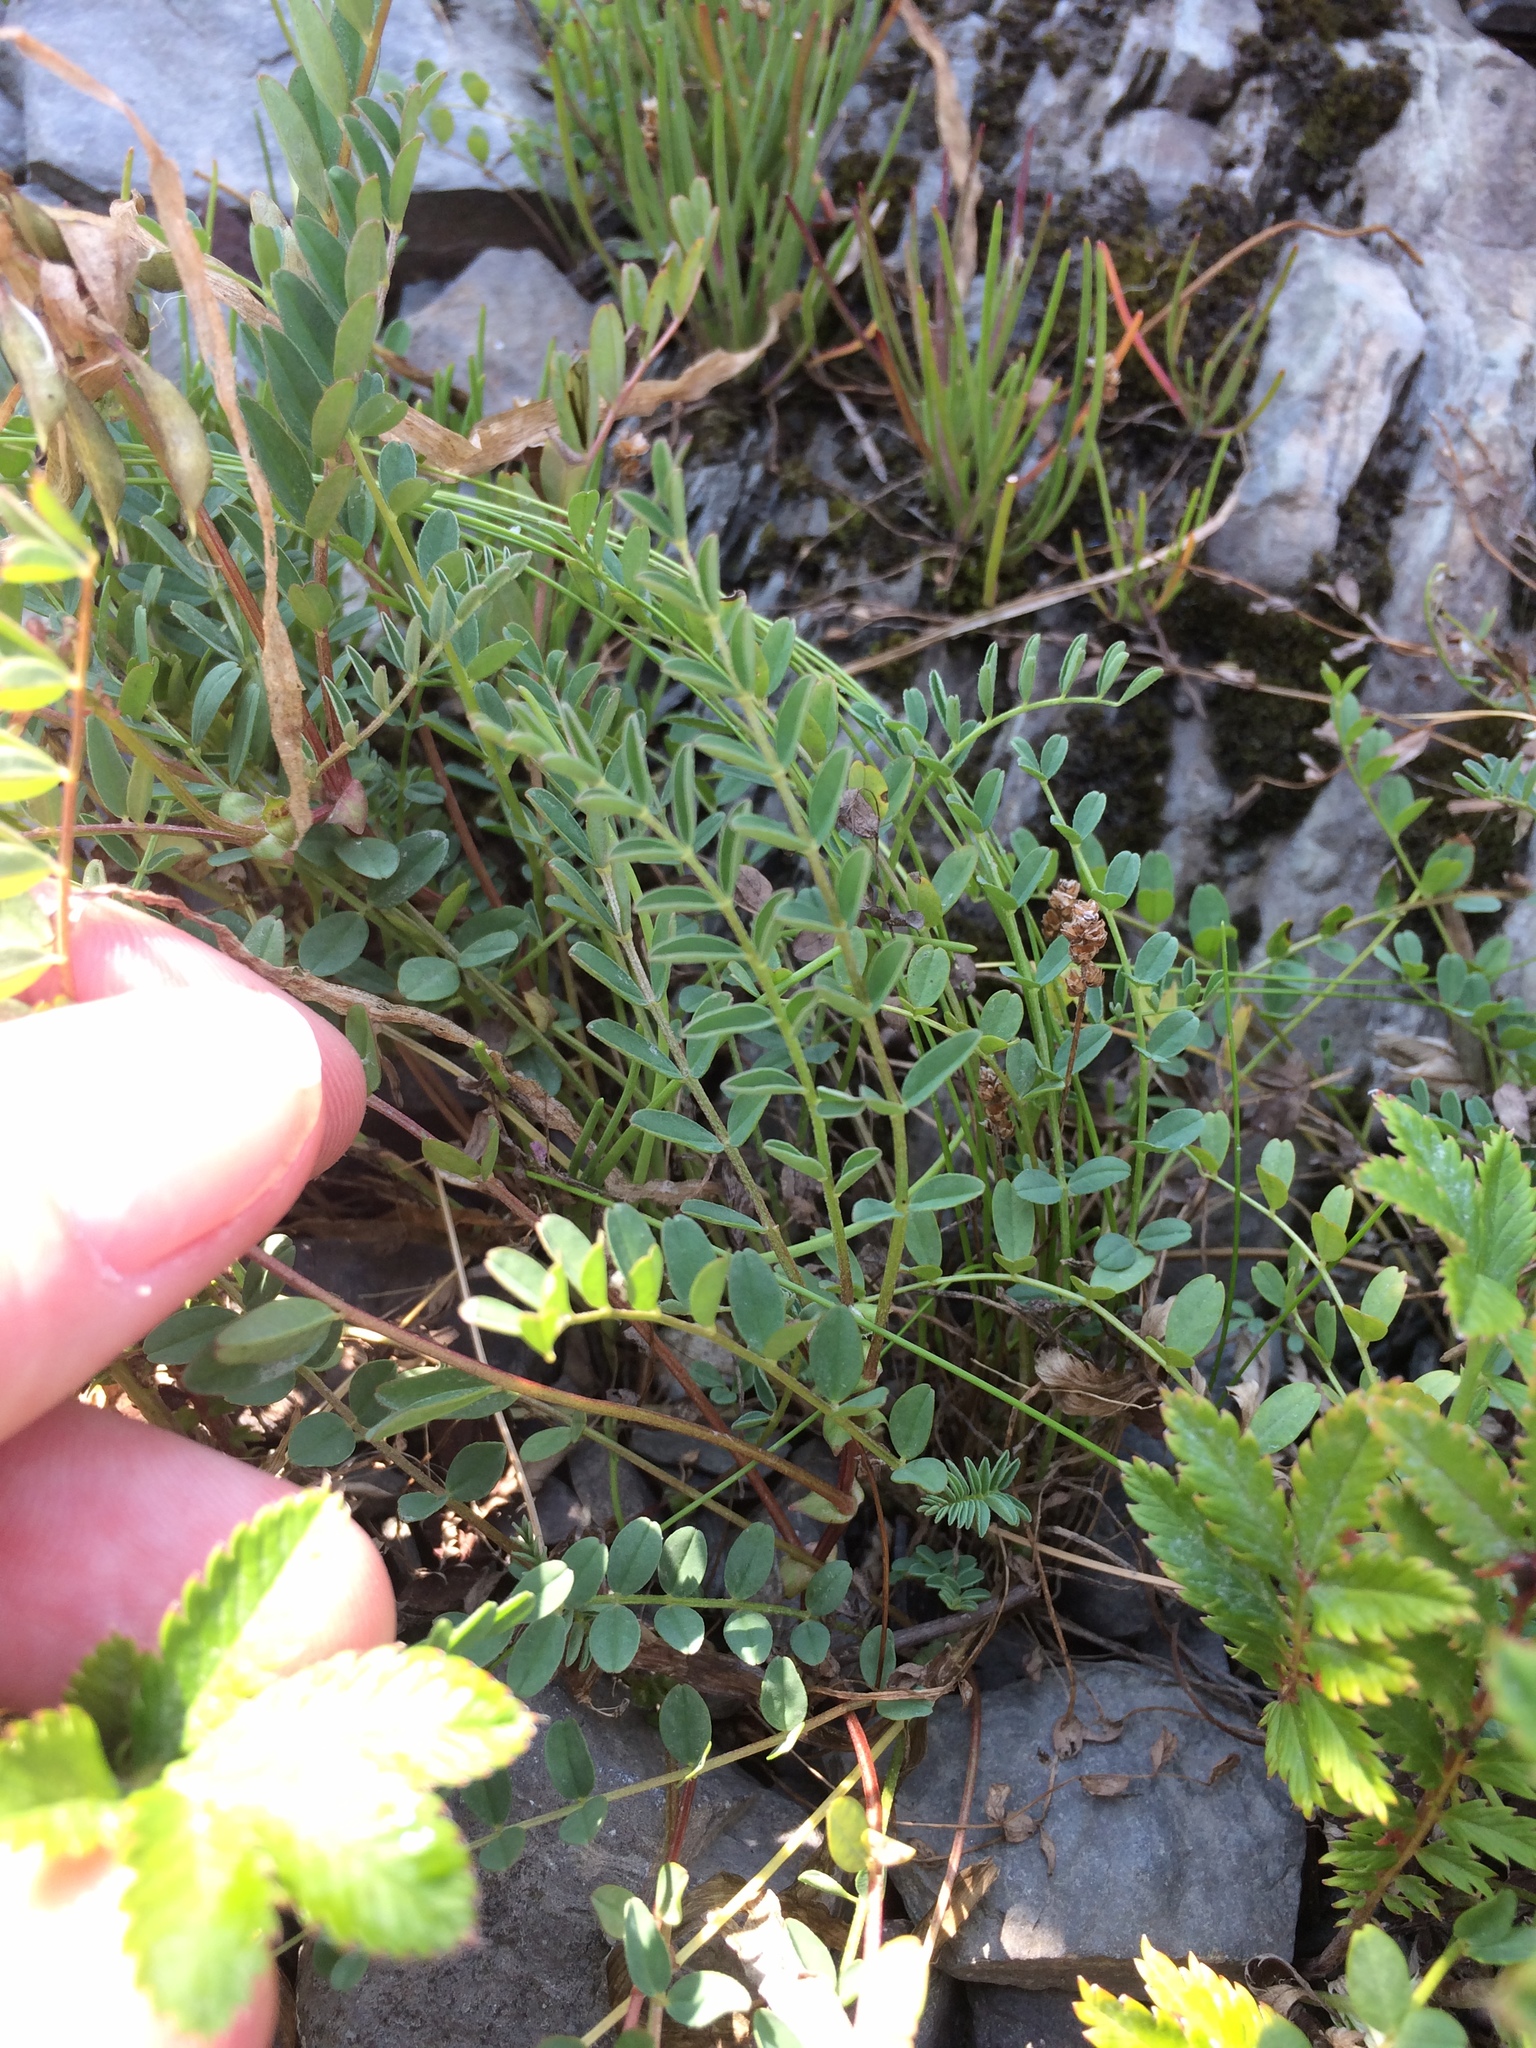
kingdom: Plantae
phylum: Tracheophyta
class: Magnoliopsida
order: Fabales
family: Fabaceae
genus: Astragalus
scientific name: Astragalus alpinus
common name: Alpine milk-vetch
